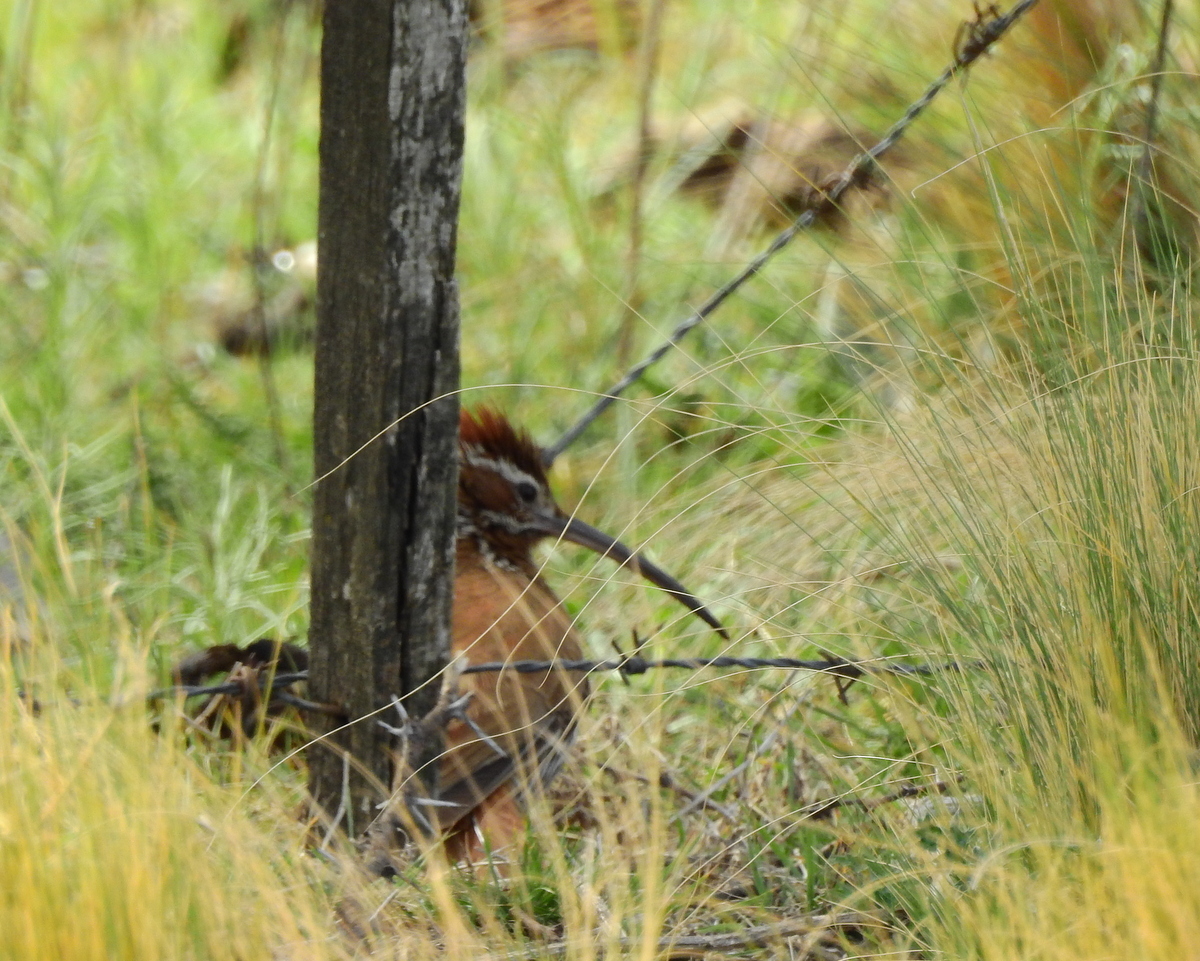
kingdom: Animalia
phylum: Chordata
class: Aves
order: Passeriformes
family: Furnariidae
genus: Drymornis
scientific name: Drymornis bridgesii
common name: Scimitar-billed woodcreeper
